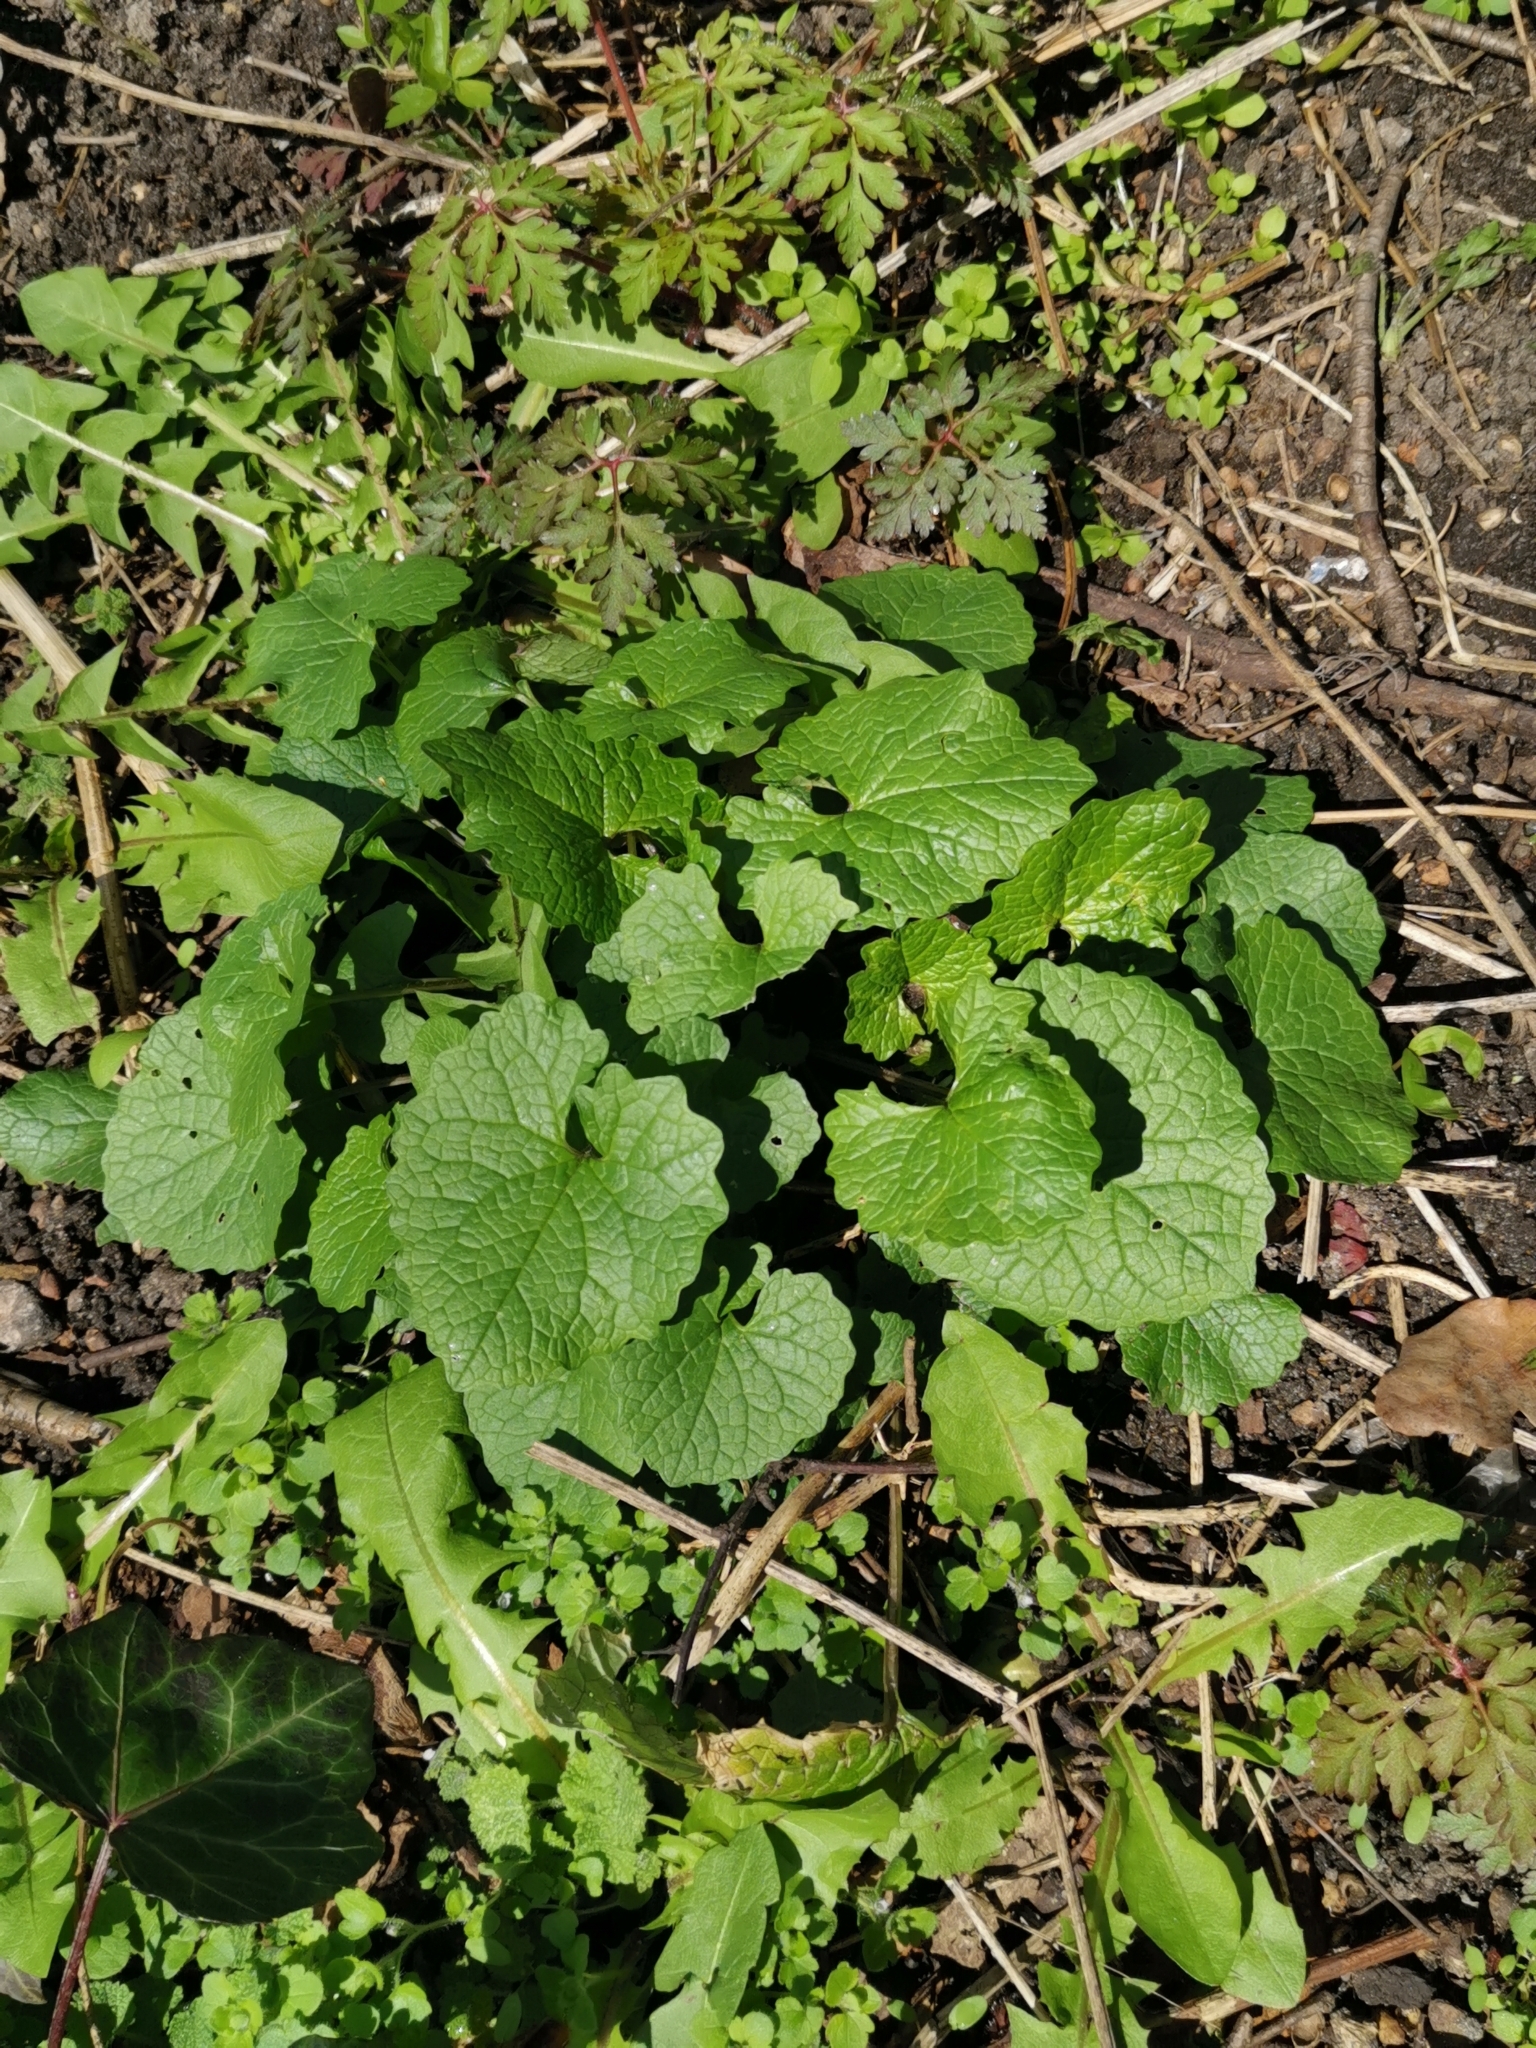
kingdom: Plantae
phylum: Tracheophyta
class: Magnoliopsida
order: Brassicales
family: Brassicaceae
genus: Alliaria
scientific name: Alliaria petiolata
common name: Garlic mustard
